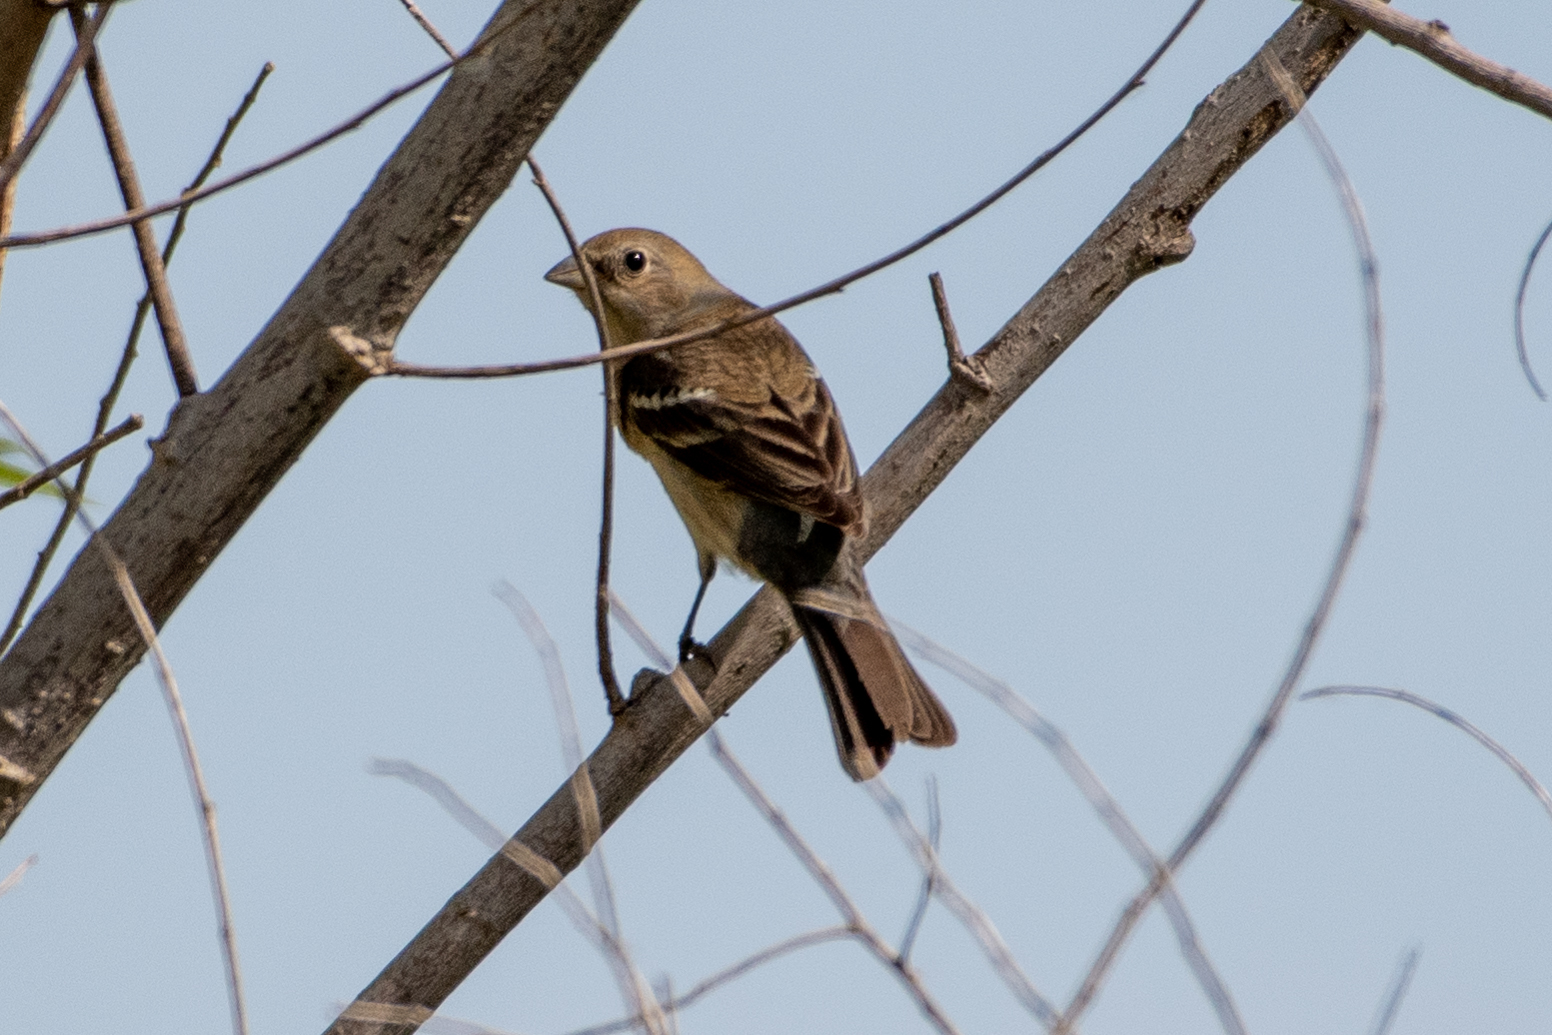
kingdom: Animalia
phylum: Chordata
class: Aves
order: Passeriformes
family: Cardinalidae
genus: Passerina
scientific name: Passerina amoena
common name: Lazuli bunting
